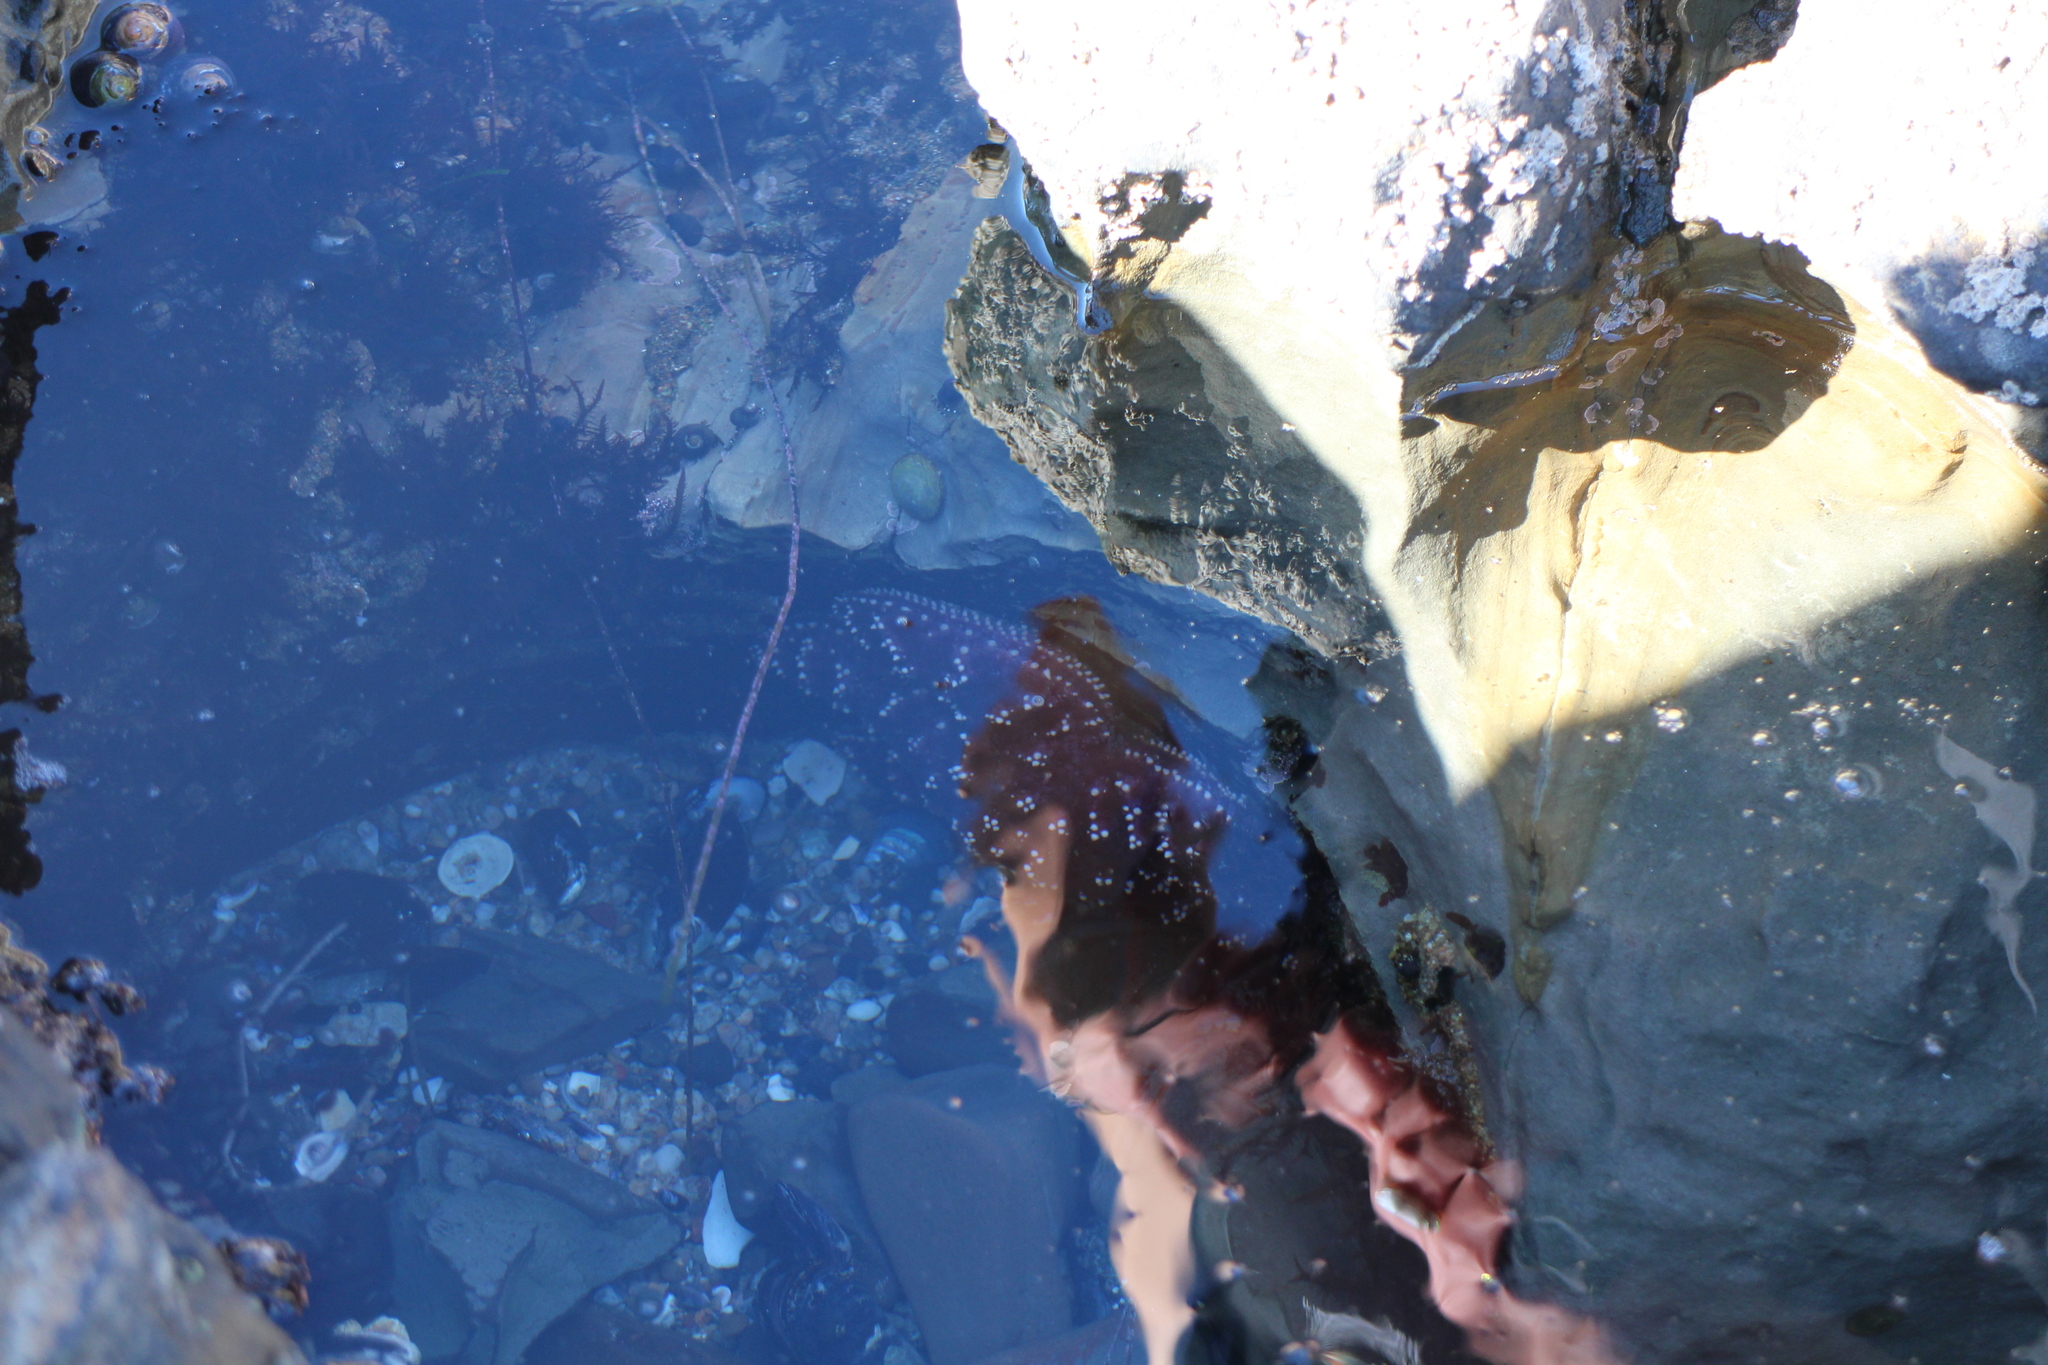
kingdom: Animalia
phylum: Echinodermata
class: Asteroidea
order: Forcipulatida
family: Asteriidae
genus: Pisaster
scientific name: Pisaster ochraceus
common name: Ochre stars
